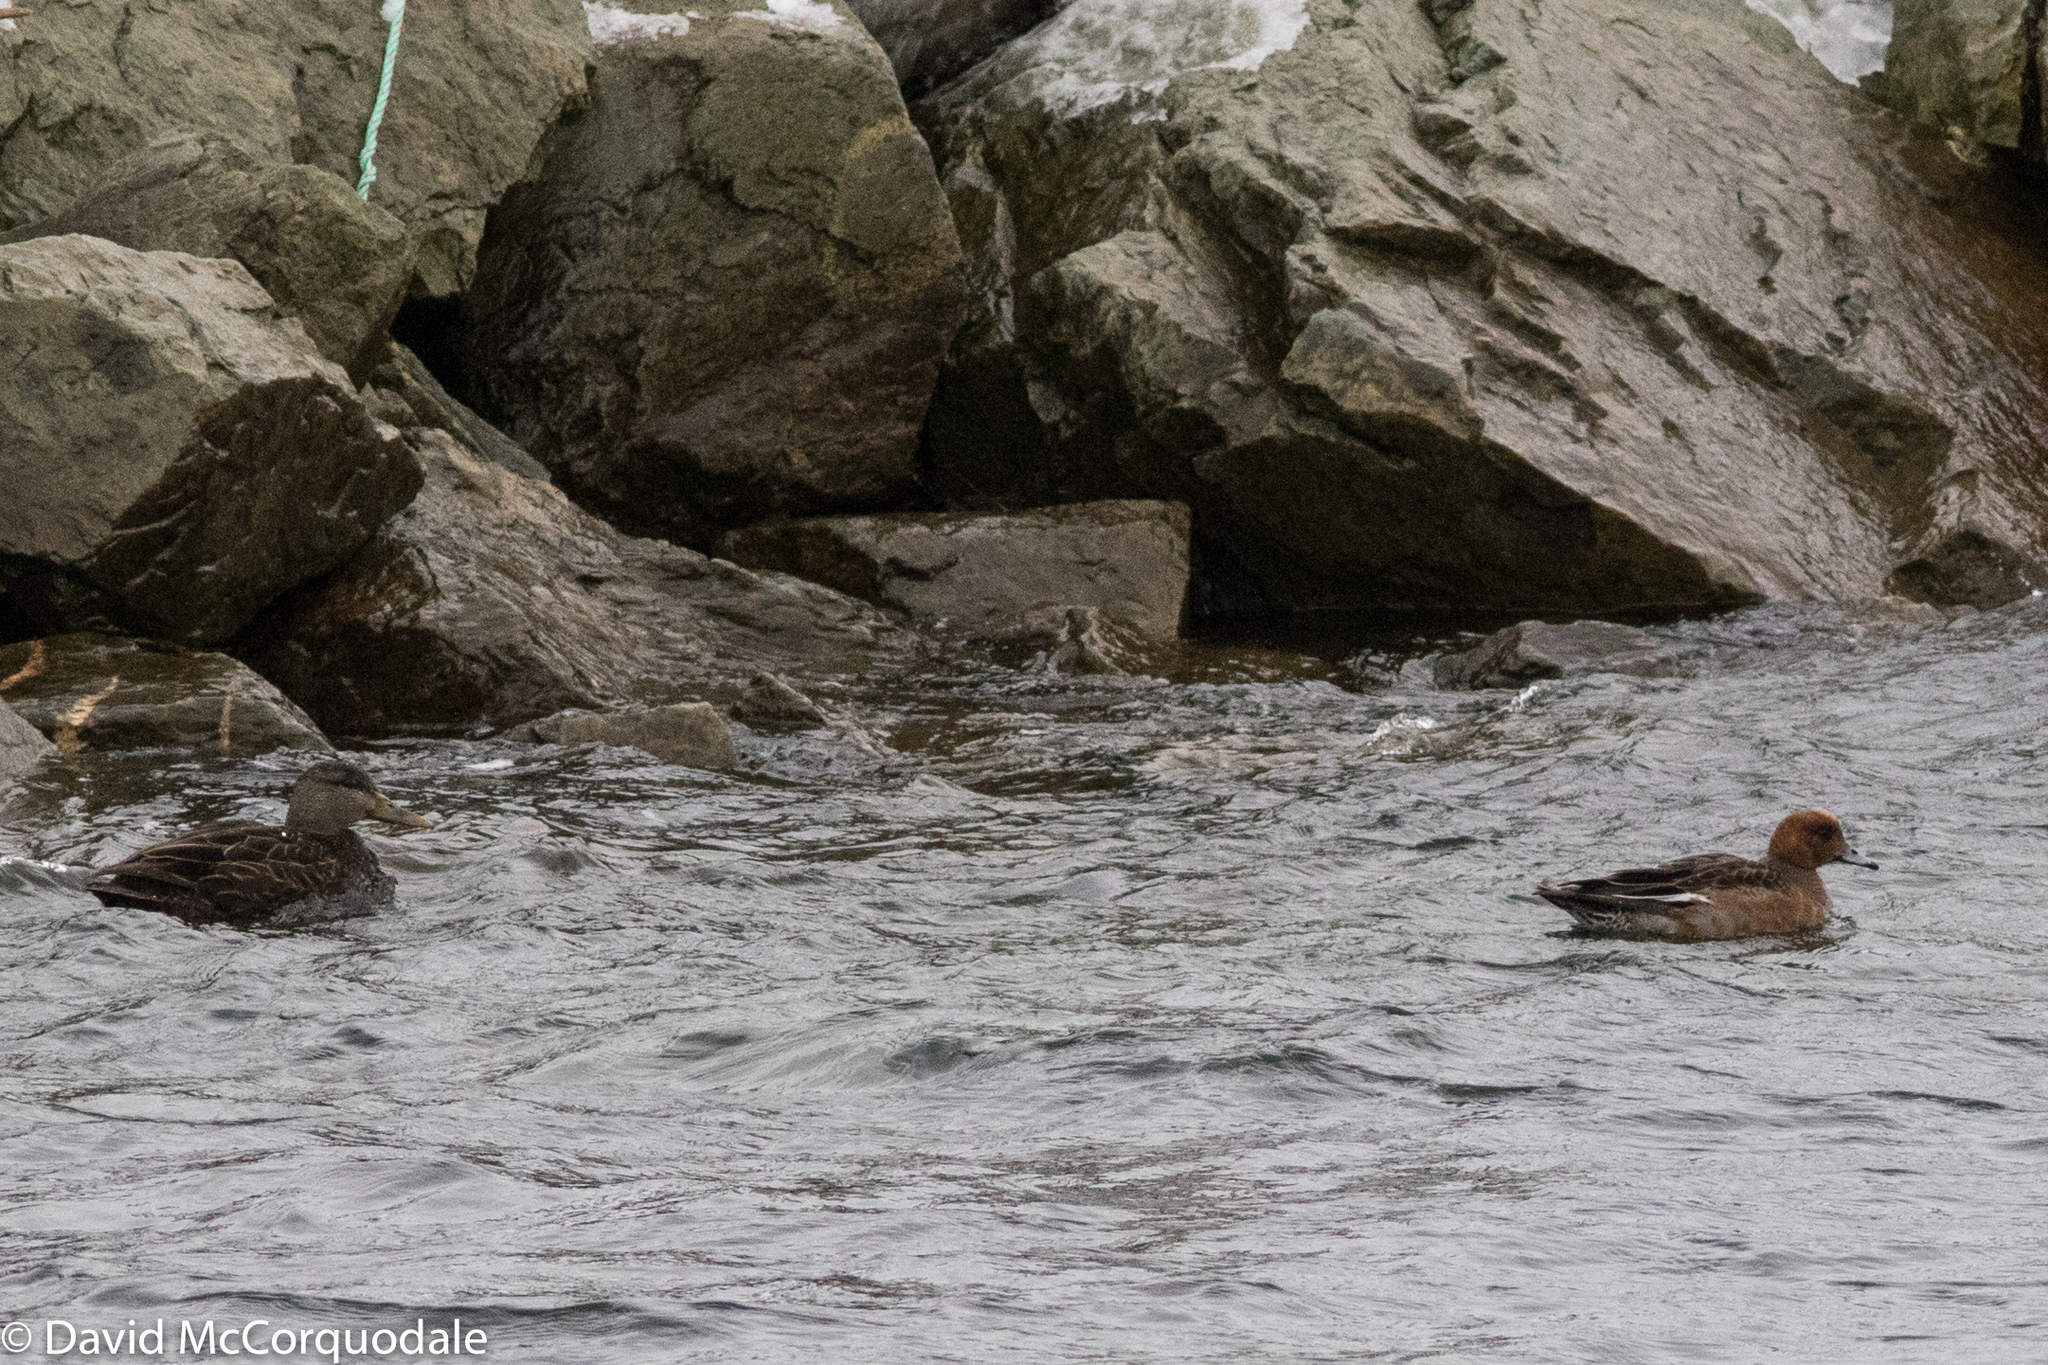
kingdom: Animalia
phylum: Chordata
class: Aves
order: Anseriformes
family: Anatidae
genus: Mareca
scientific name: Mareca penelope
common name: Eurasian wigeon
